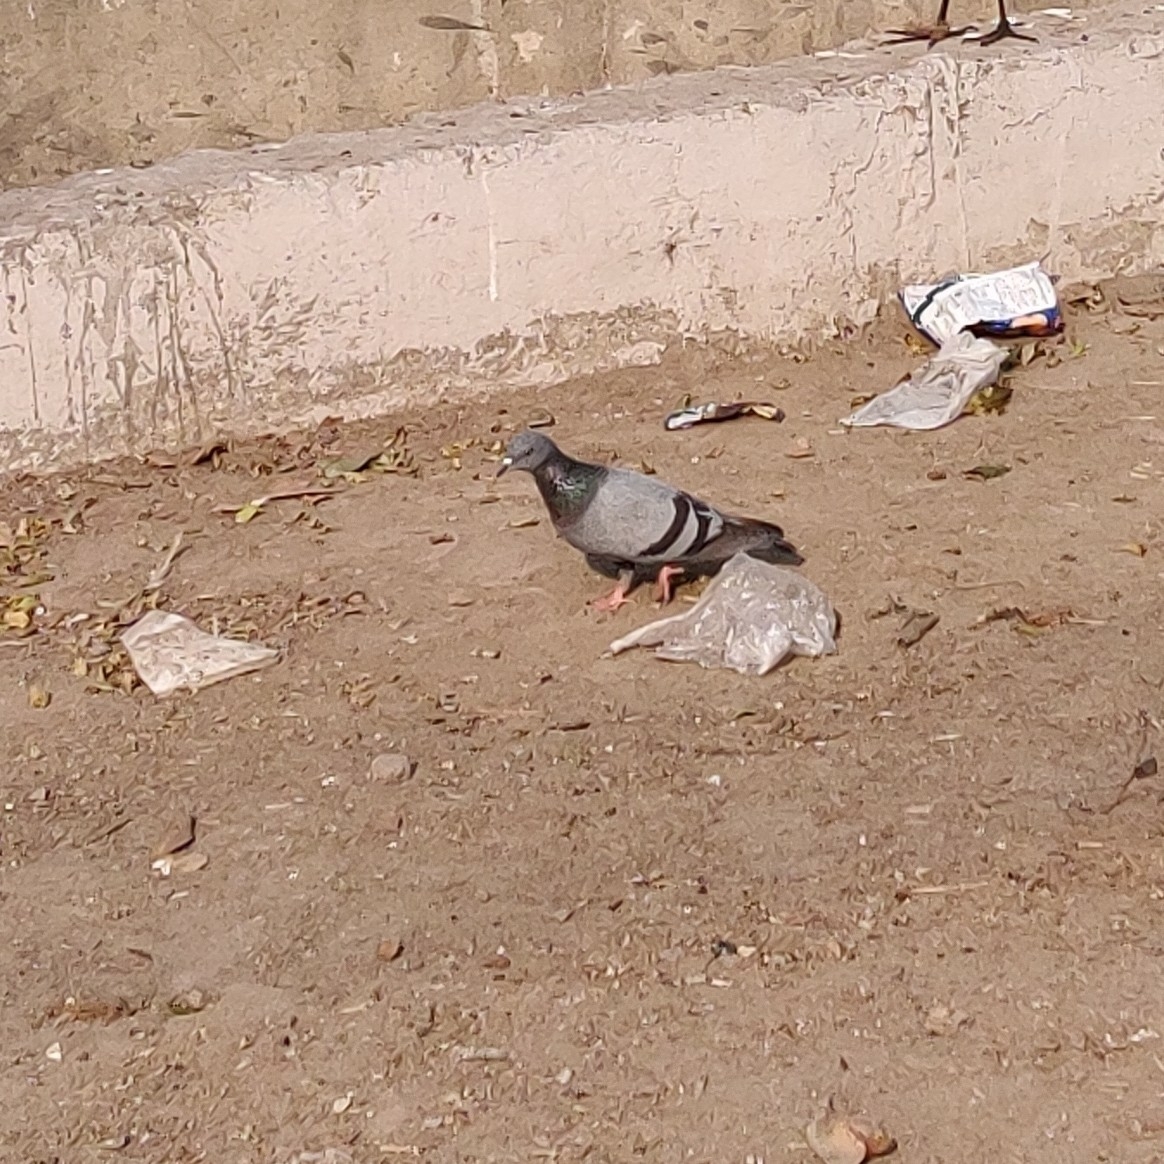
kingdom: Animalia
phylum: Chordata
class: Aves
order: Columbiformes
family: Columbidae
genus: Columba
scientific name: Columba livia
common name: Rock pigeon
